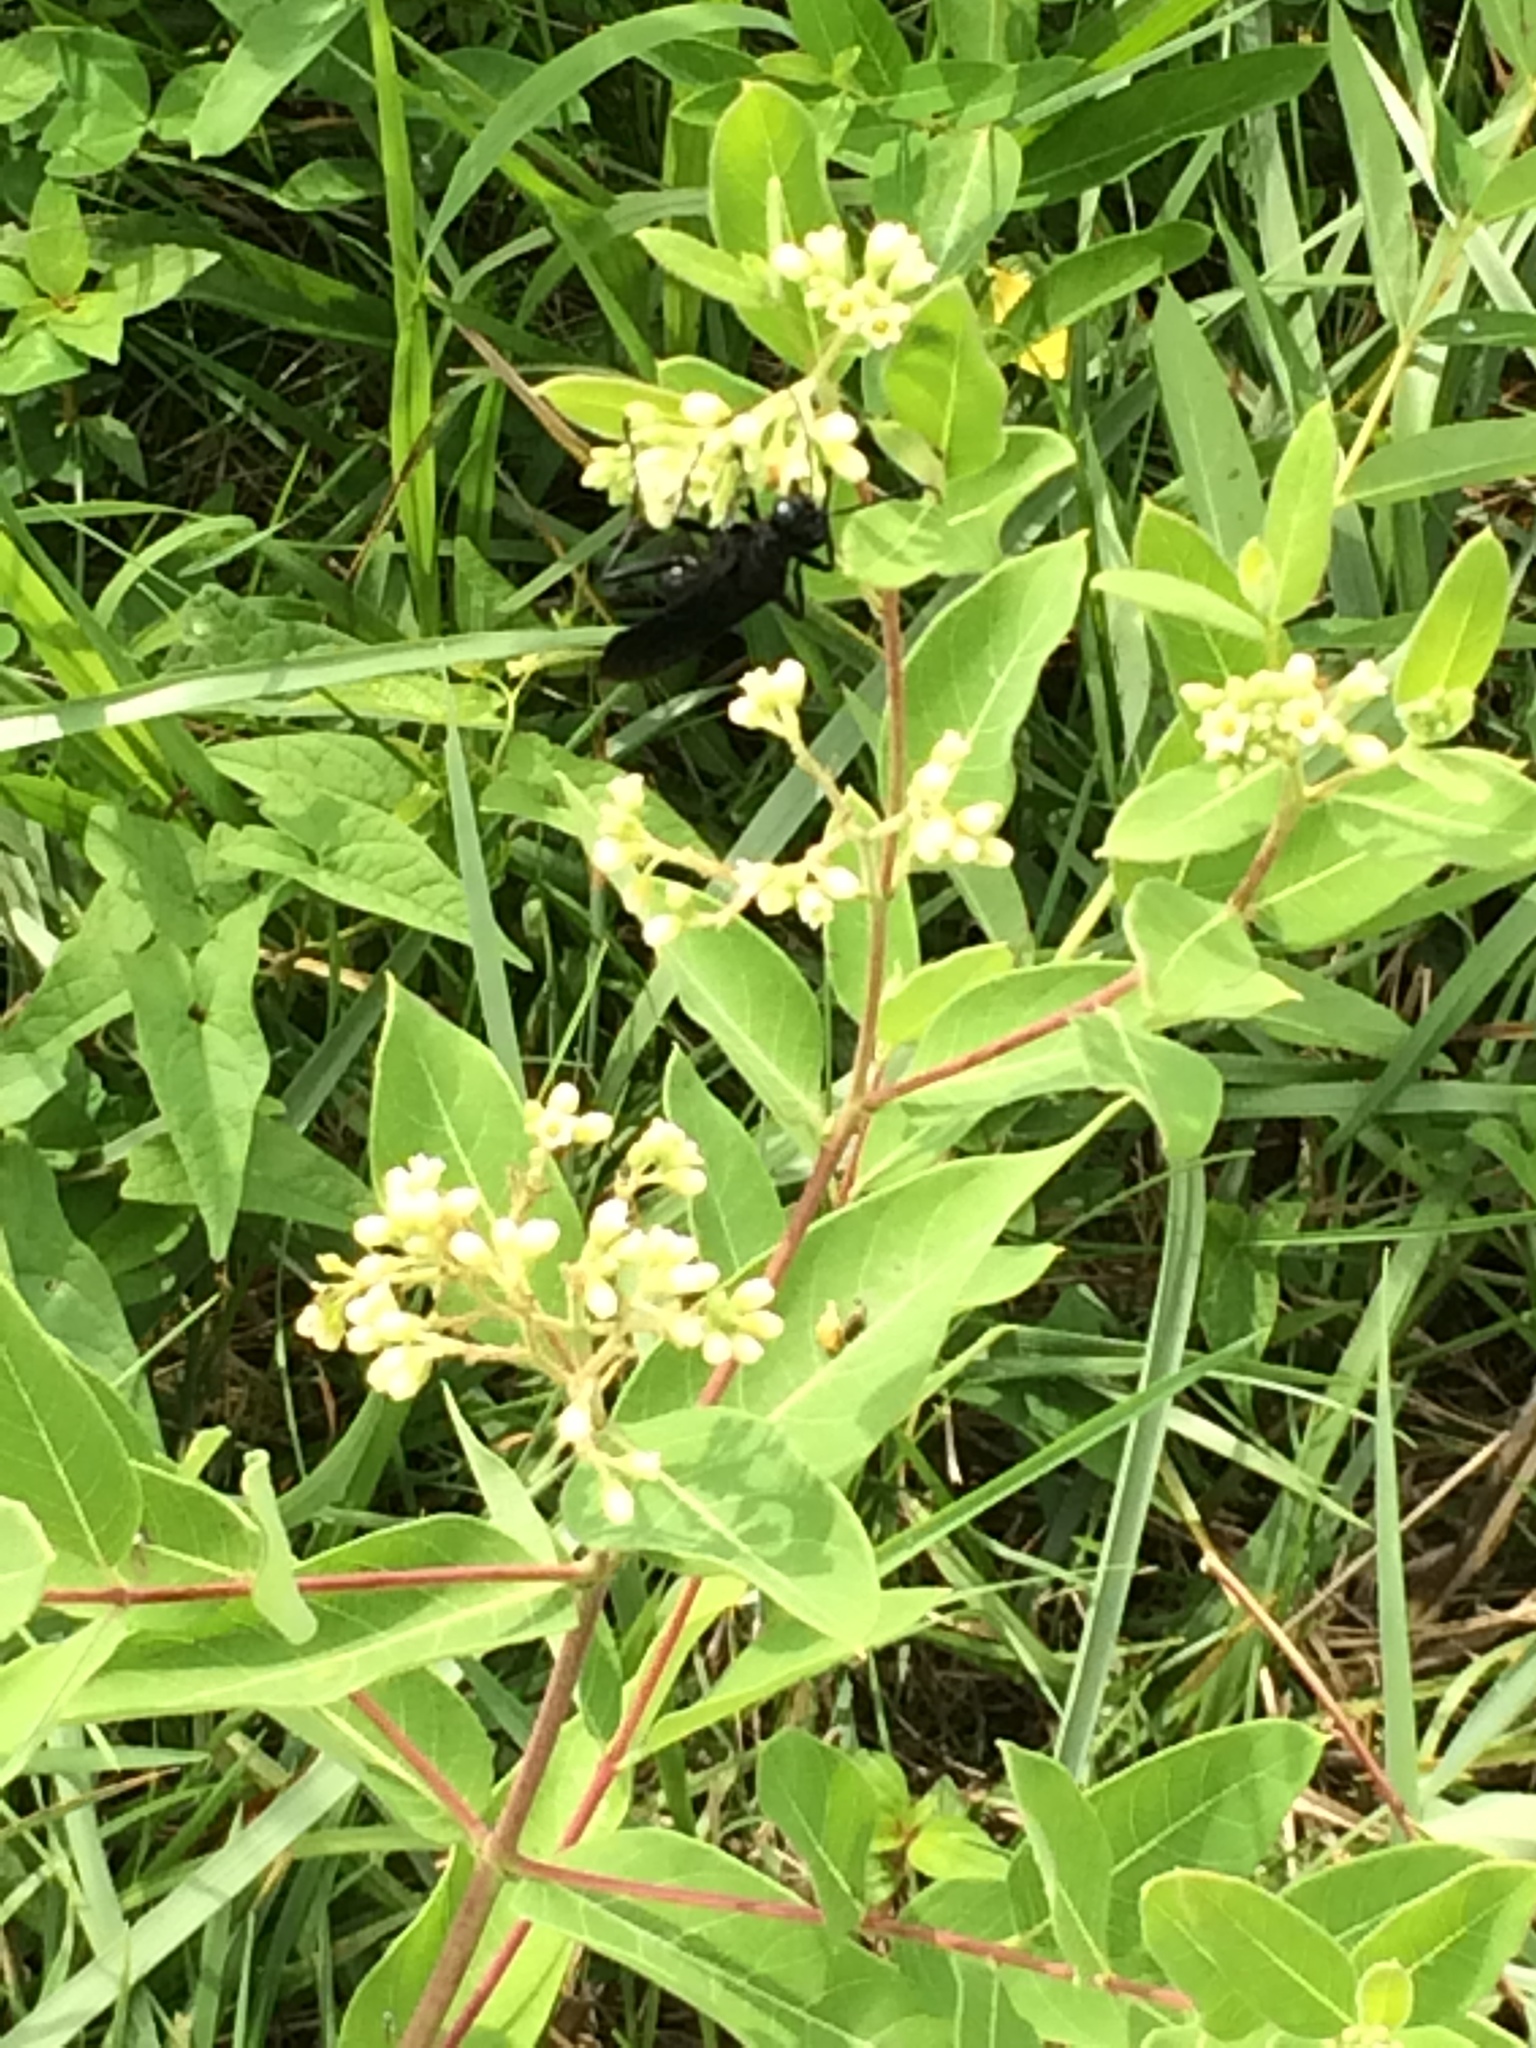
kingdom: Animalia
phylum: Arthropoda
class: Insecta
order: Hymenoptera
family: Sphecidae
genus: Sphex
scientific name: Sphex pensylvanicus
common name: Great black digger wasp
